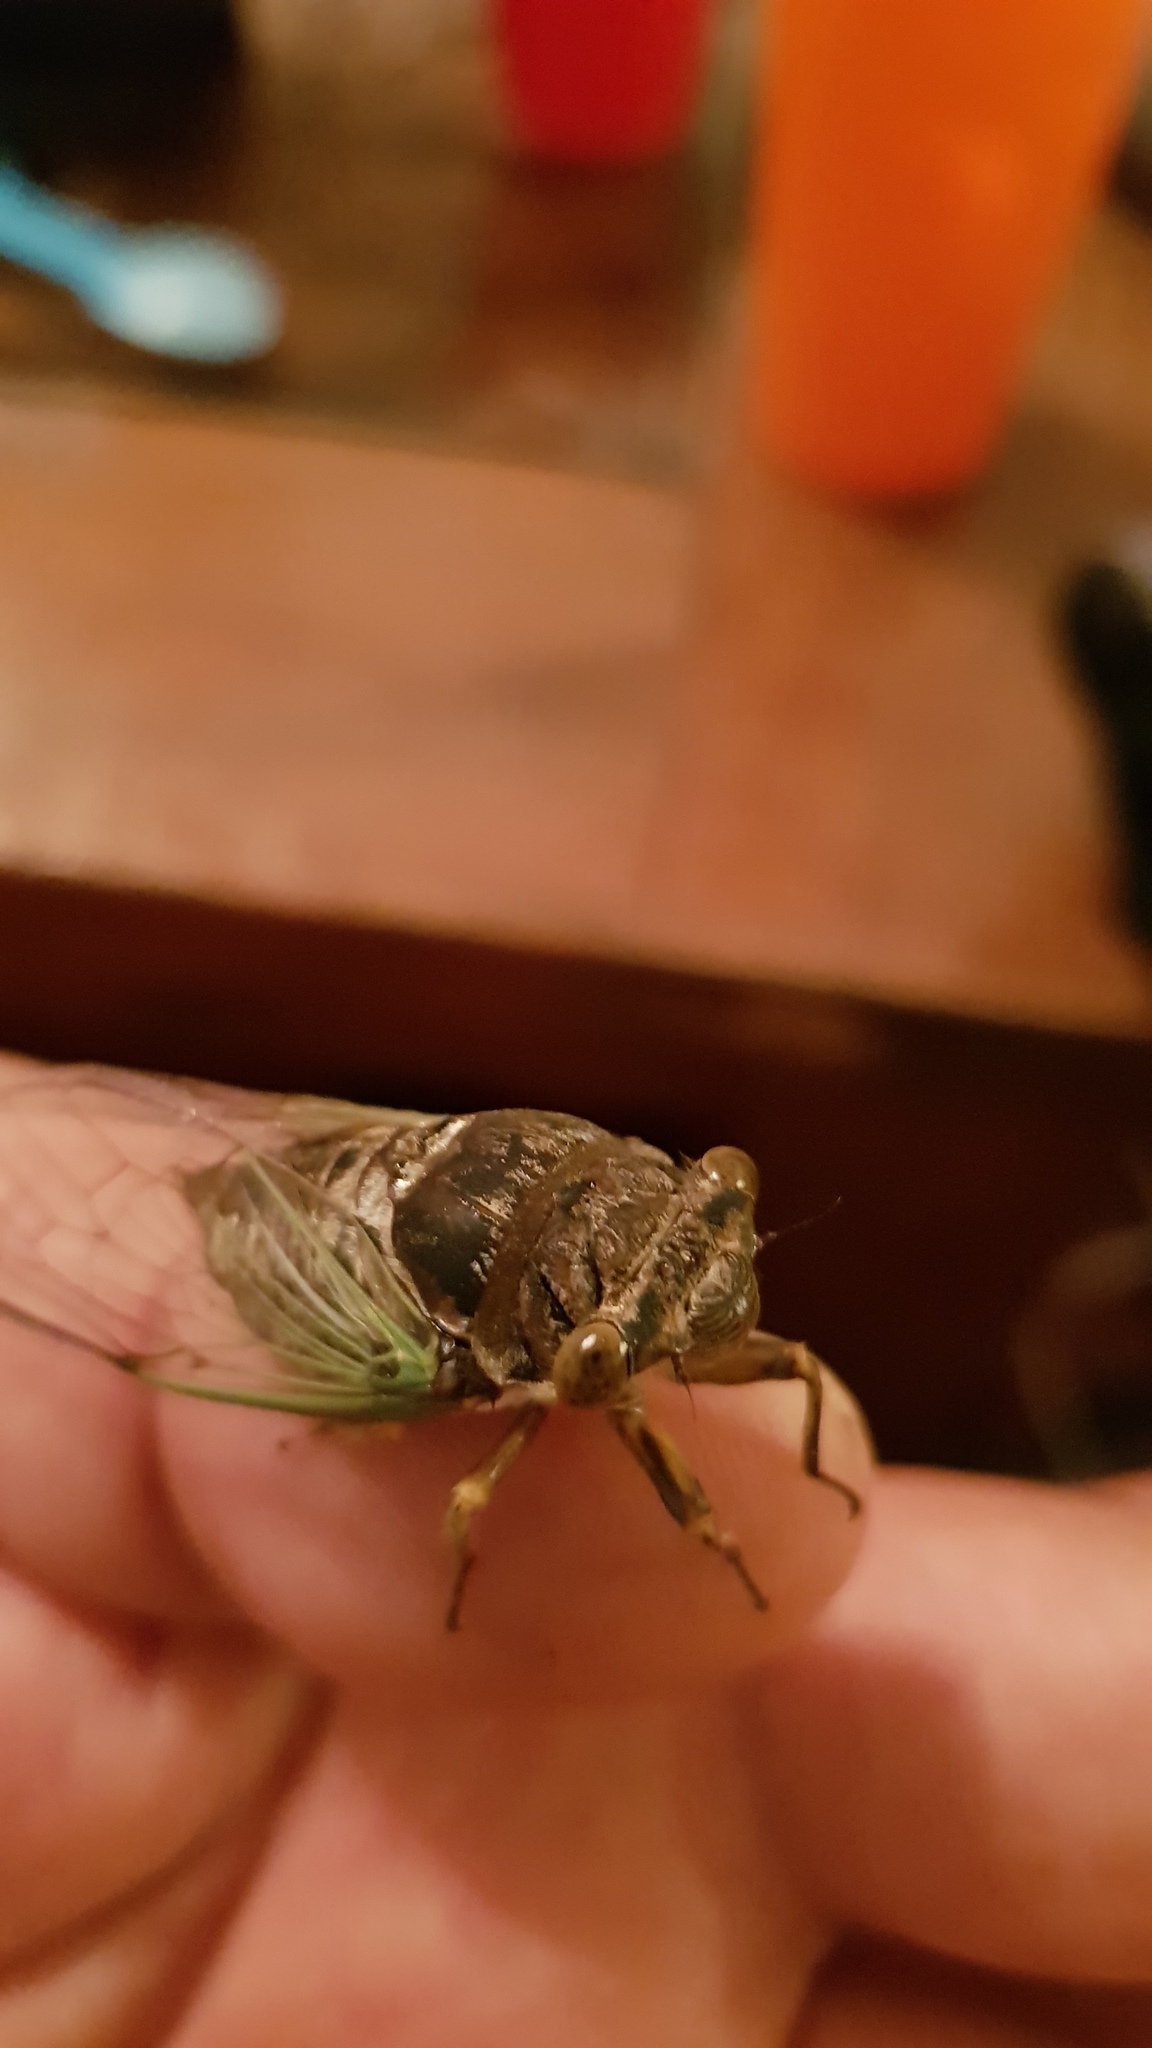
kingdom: Animalia
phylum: Arthropoda
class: Insecta
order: Hemiptera
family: Cicadidae
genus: Diceroprocta
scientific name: Diceroprocta ornea
